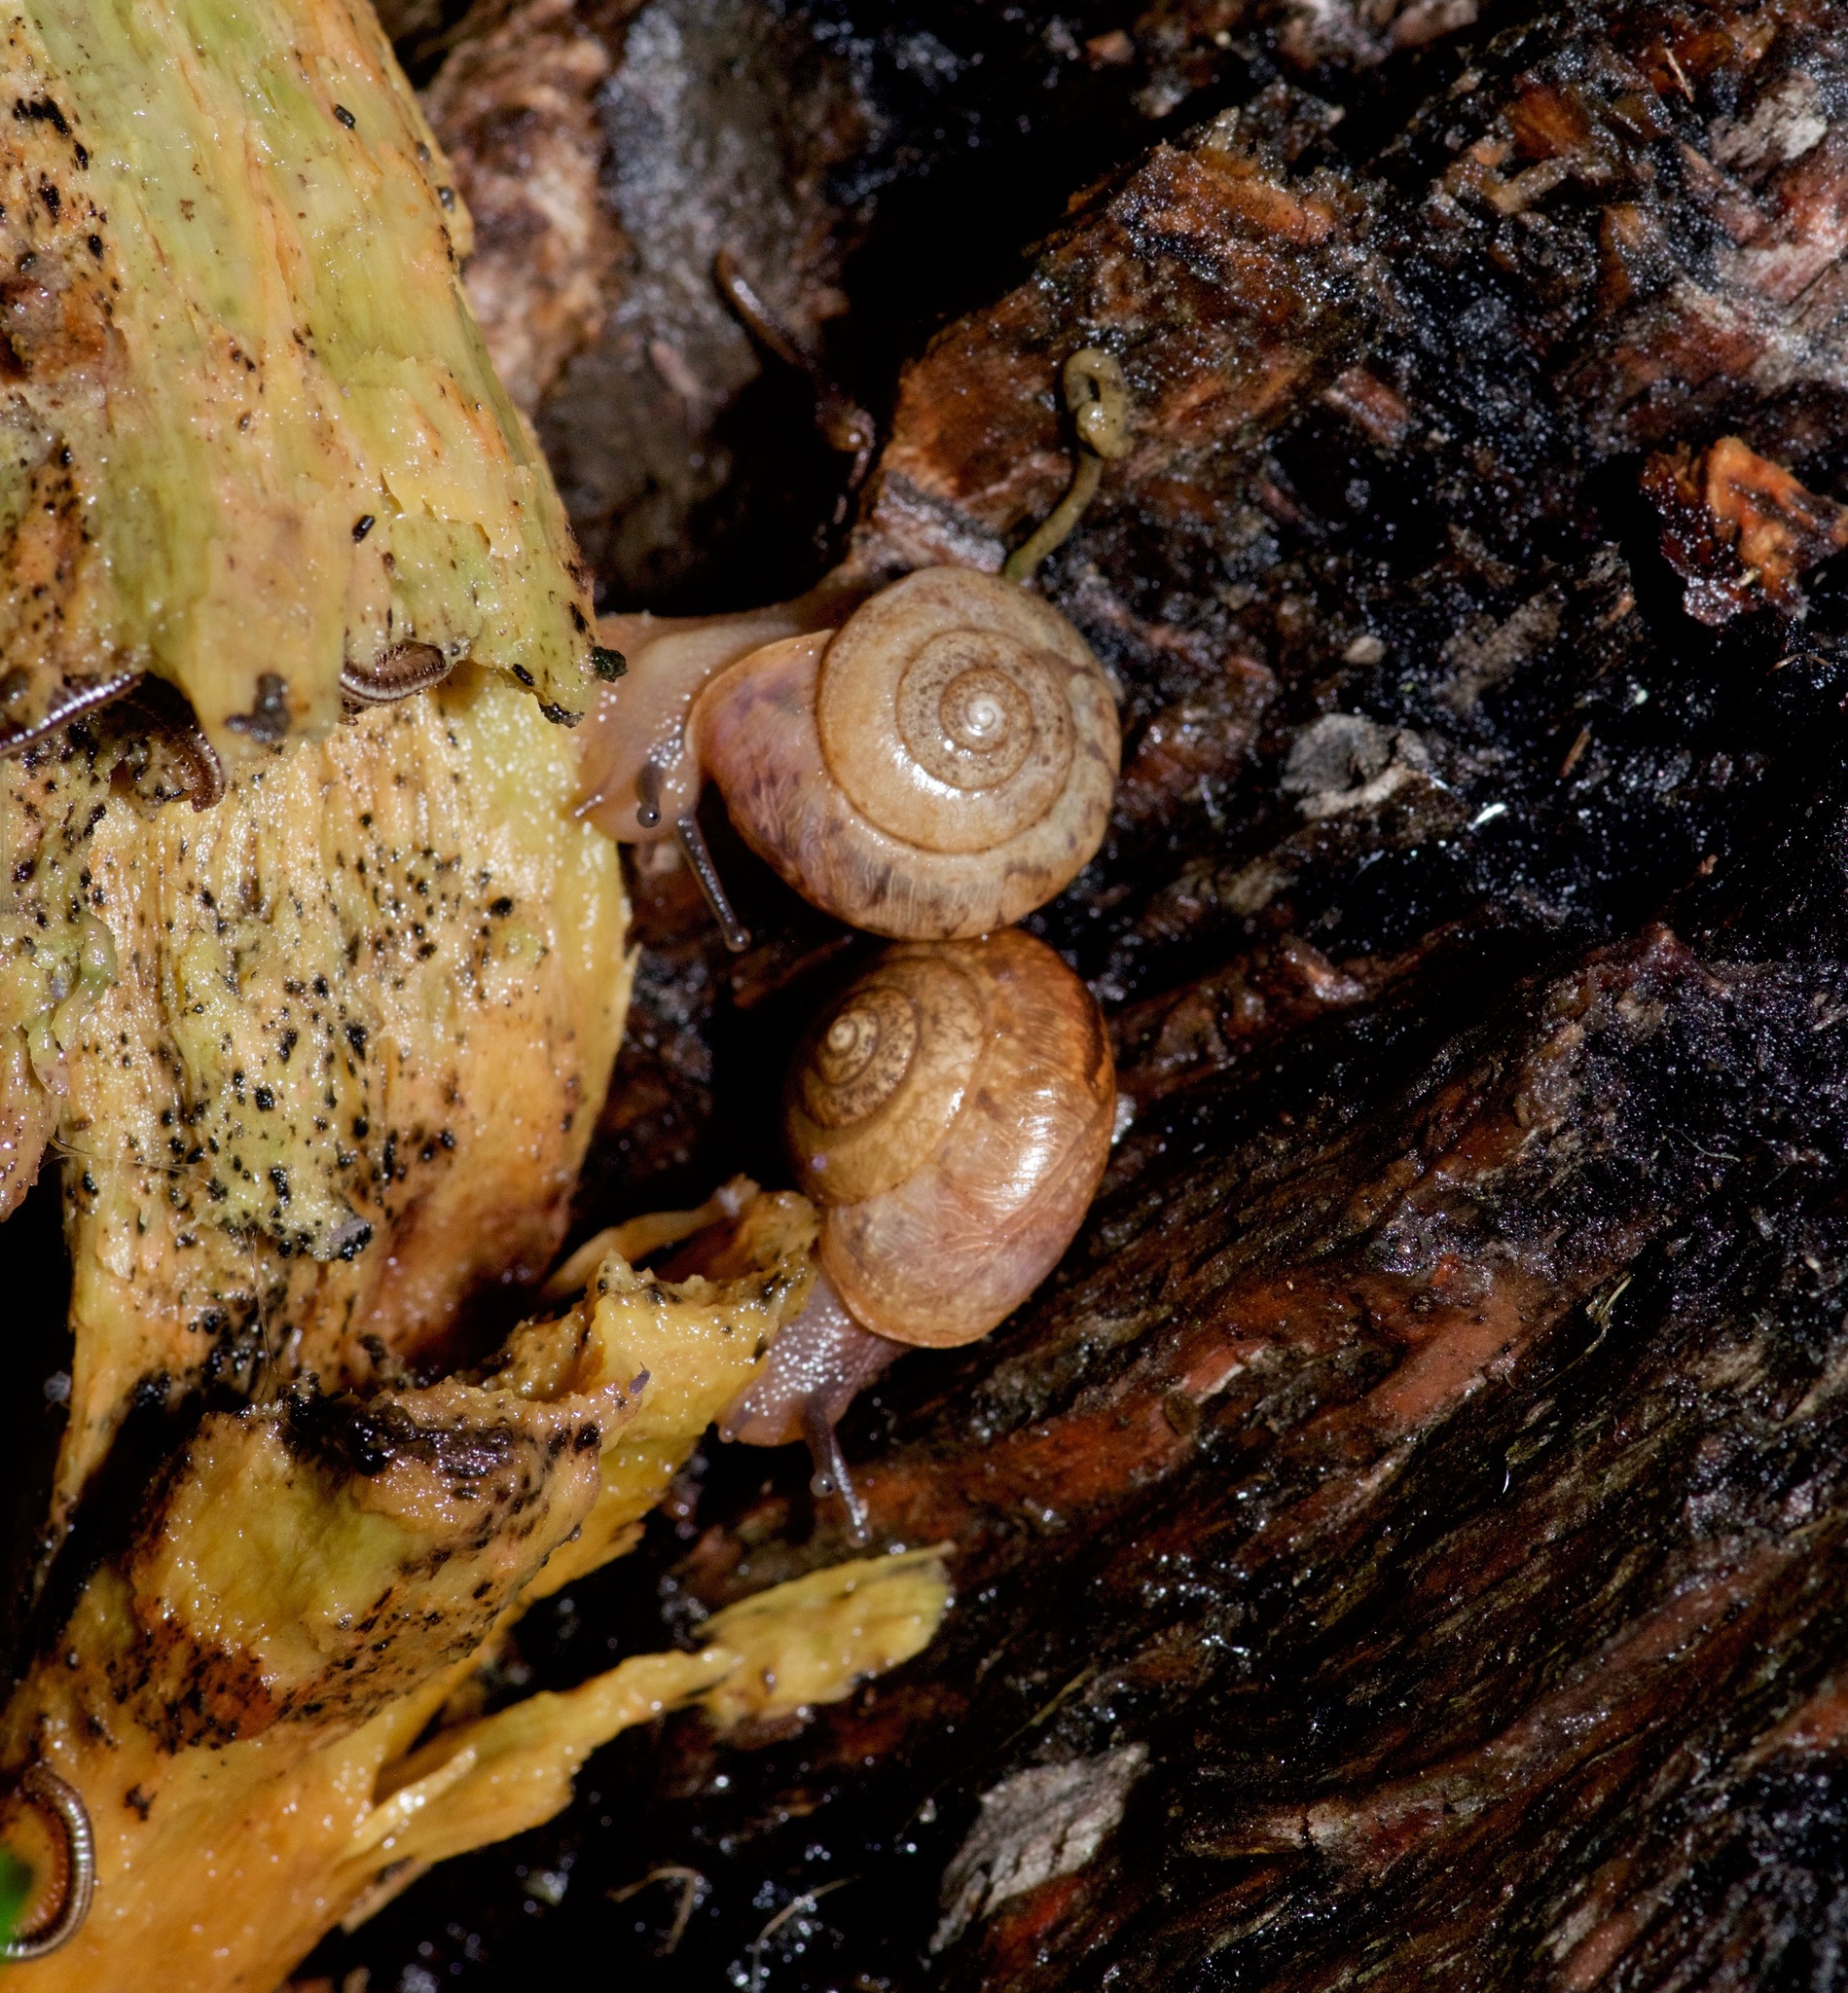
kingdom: Animalia
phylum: Mollusca
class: Gastropoda
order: Stylommatophora
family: Camaenidae
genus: Bradybaena
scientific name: Bradybaena similaris
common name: Asian trampsnail
